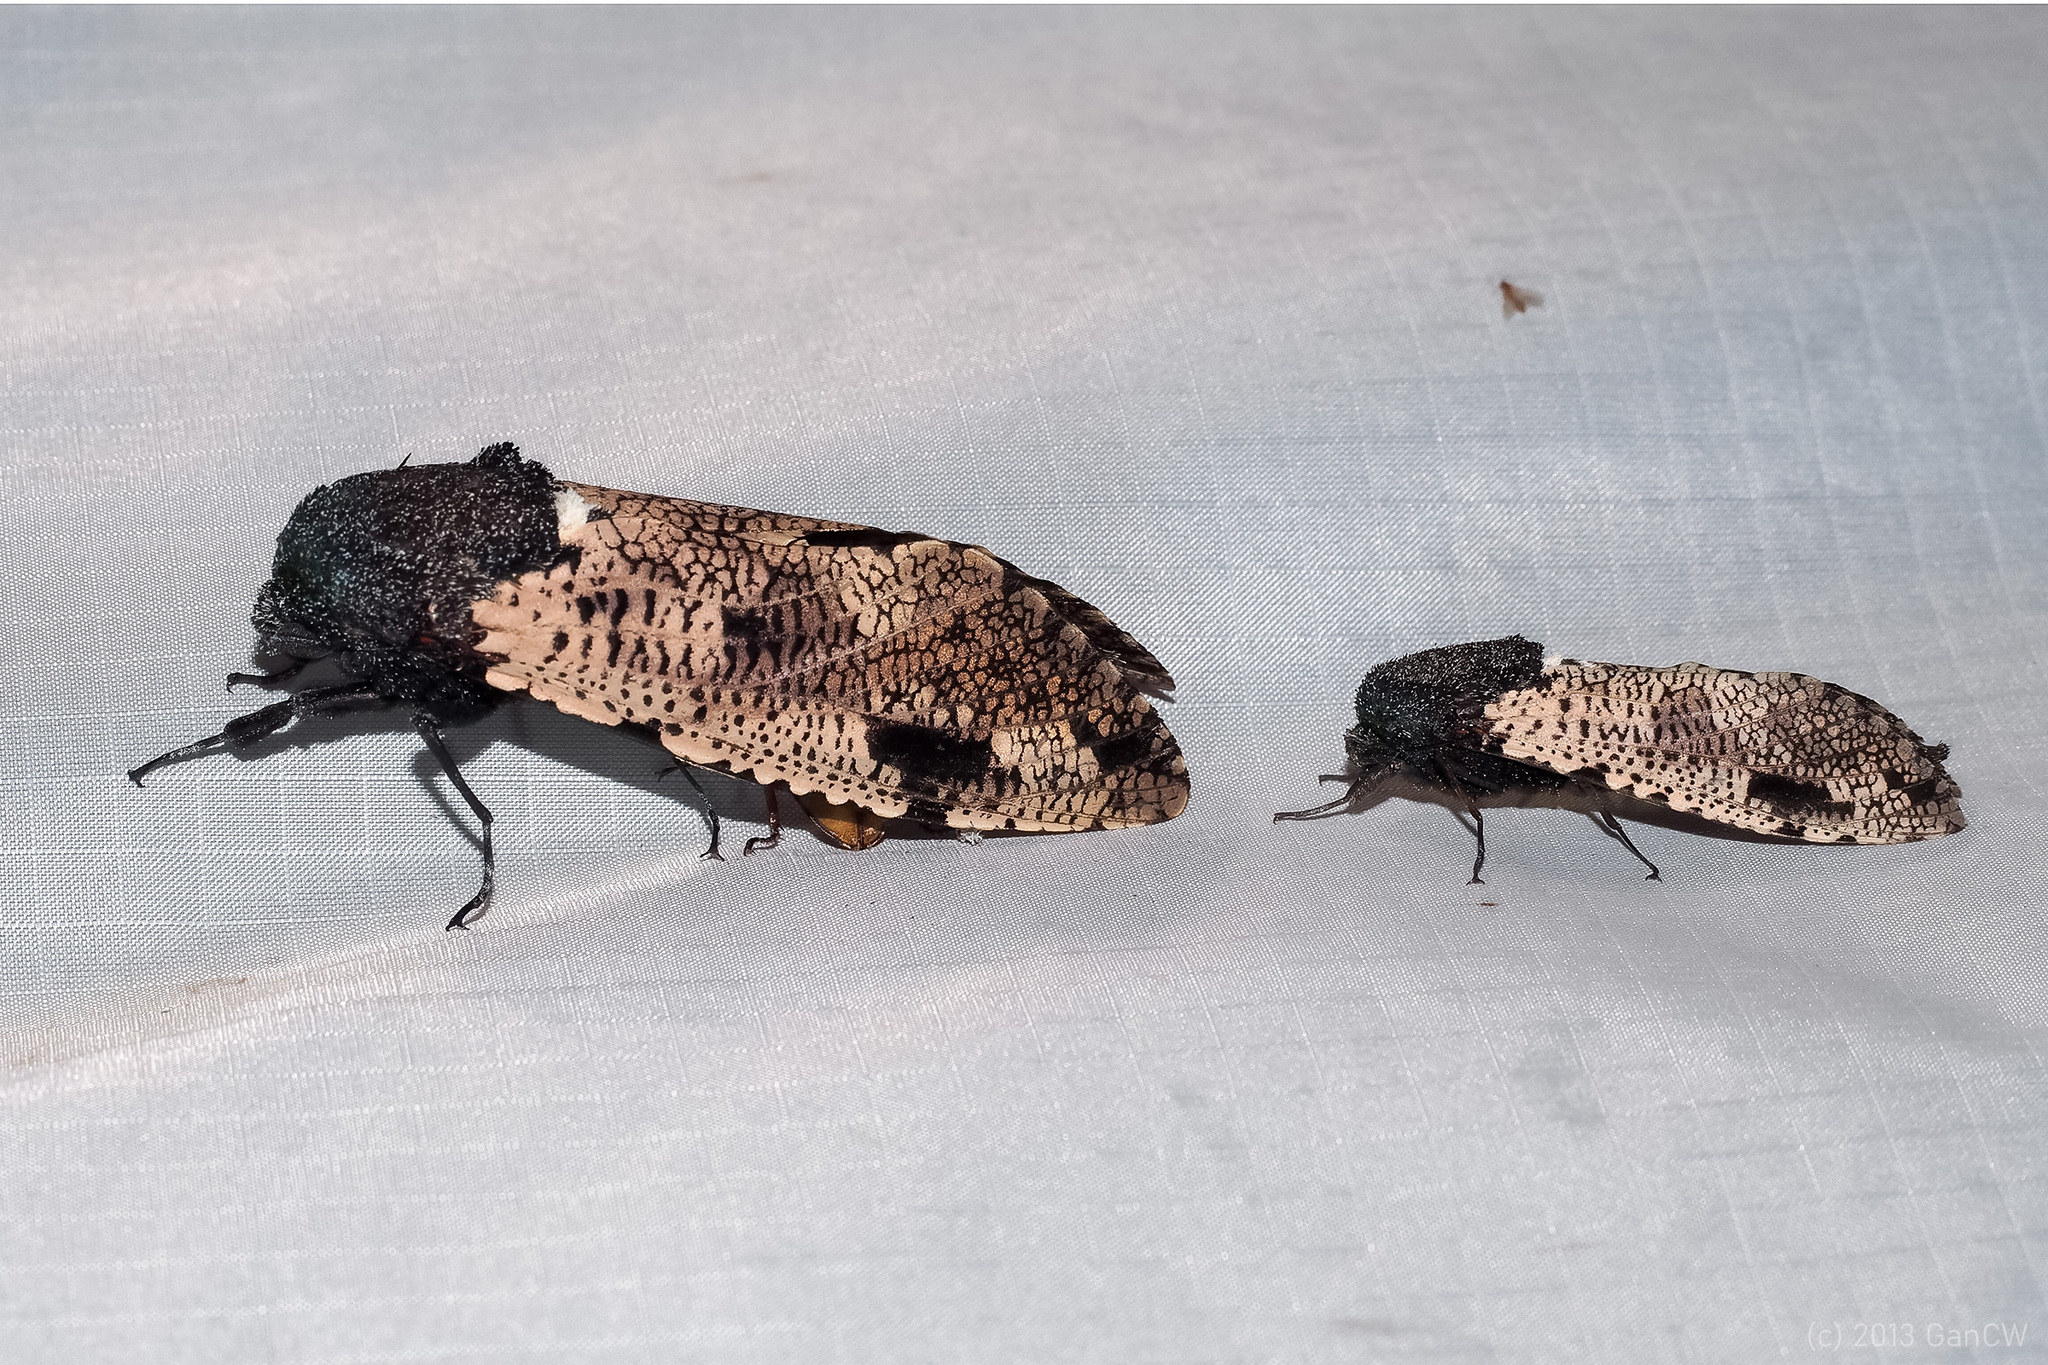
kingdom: Animalia
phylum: Arthropoda
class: Insecta
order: Lepidoptera
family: Cossidae
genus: Xyleutes
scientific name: Xyleutes strix
